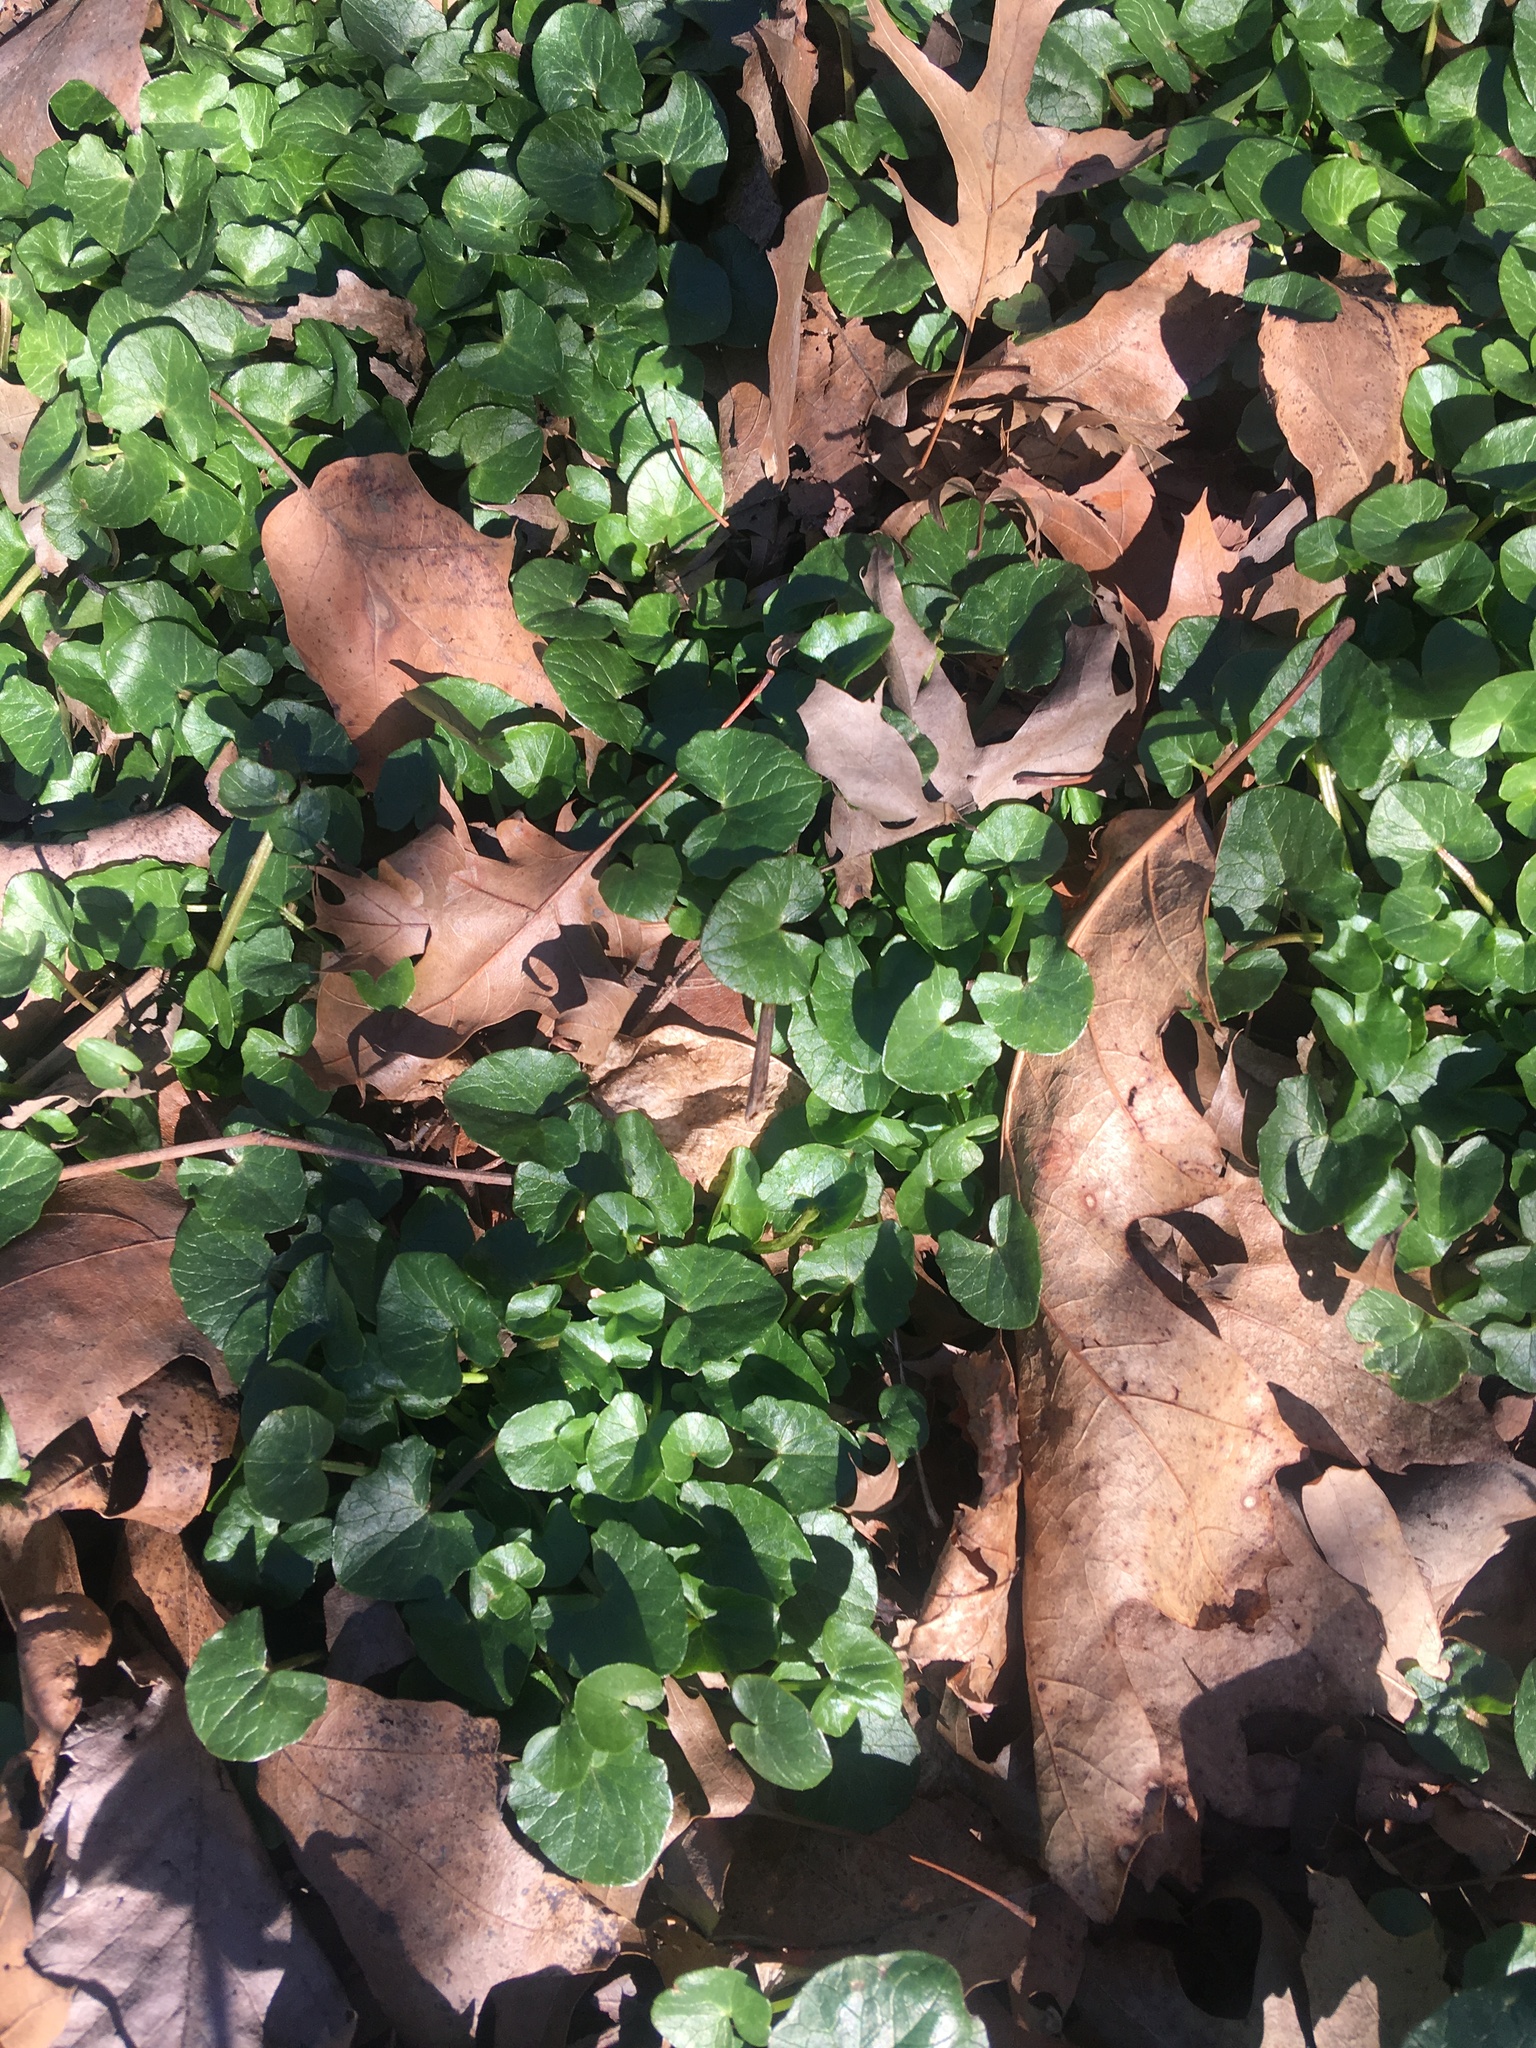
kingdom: Plantae
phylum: Tracheophyta
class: Magnoliopsida
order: Ranunculales
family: Ranunculaceae
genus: Ficaria
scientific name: Ficaria verna
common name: Lesser celandine
